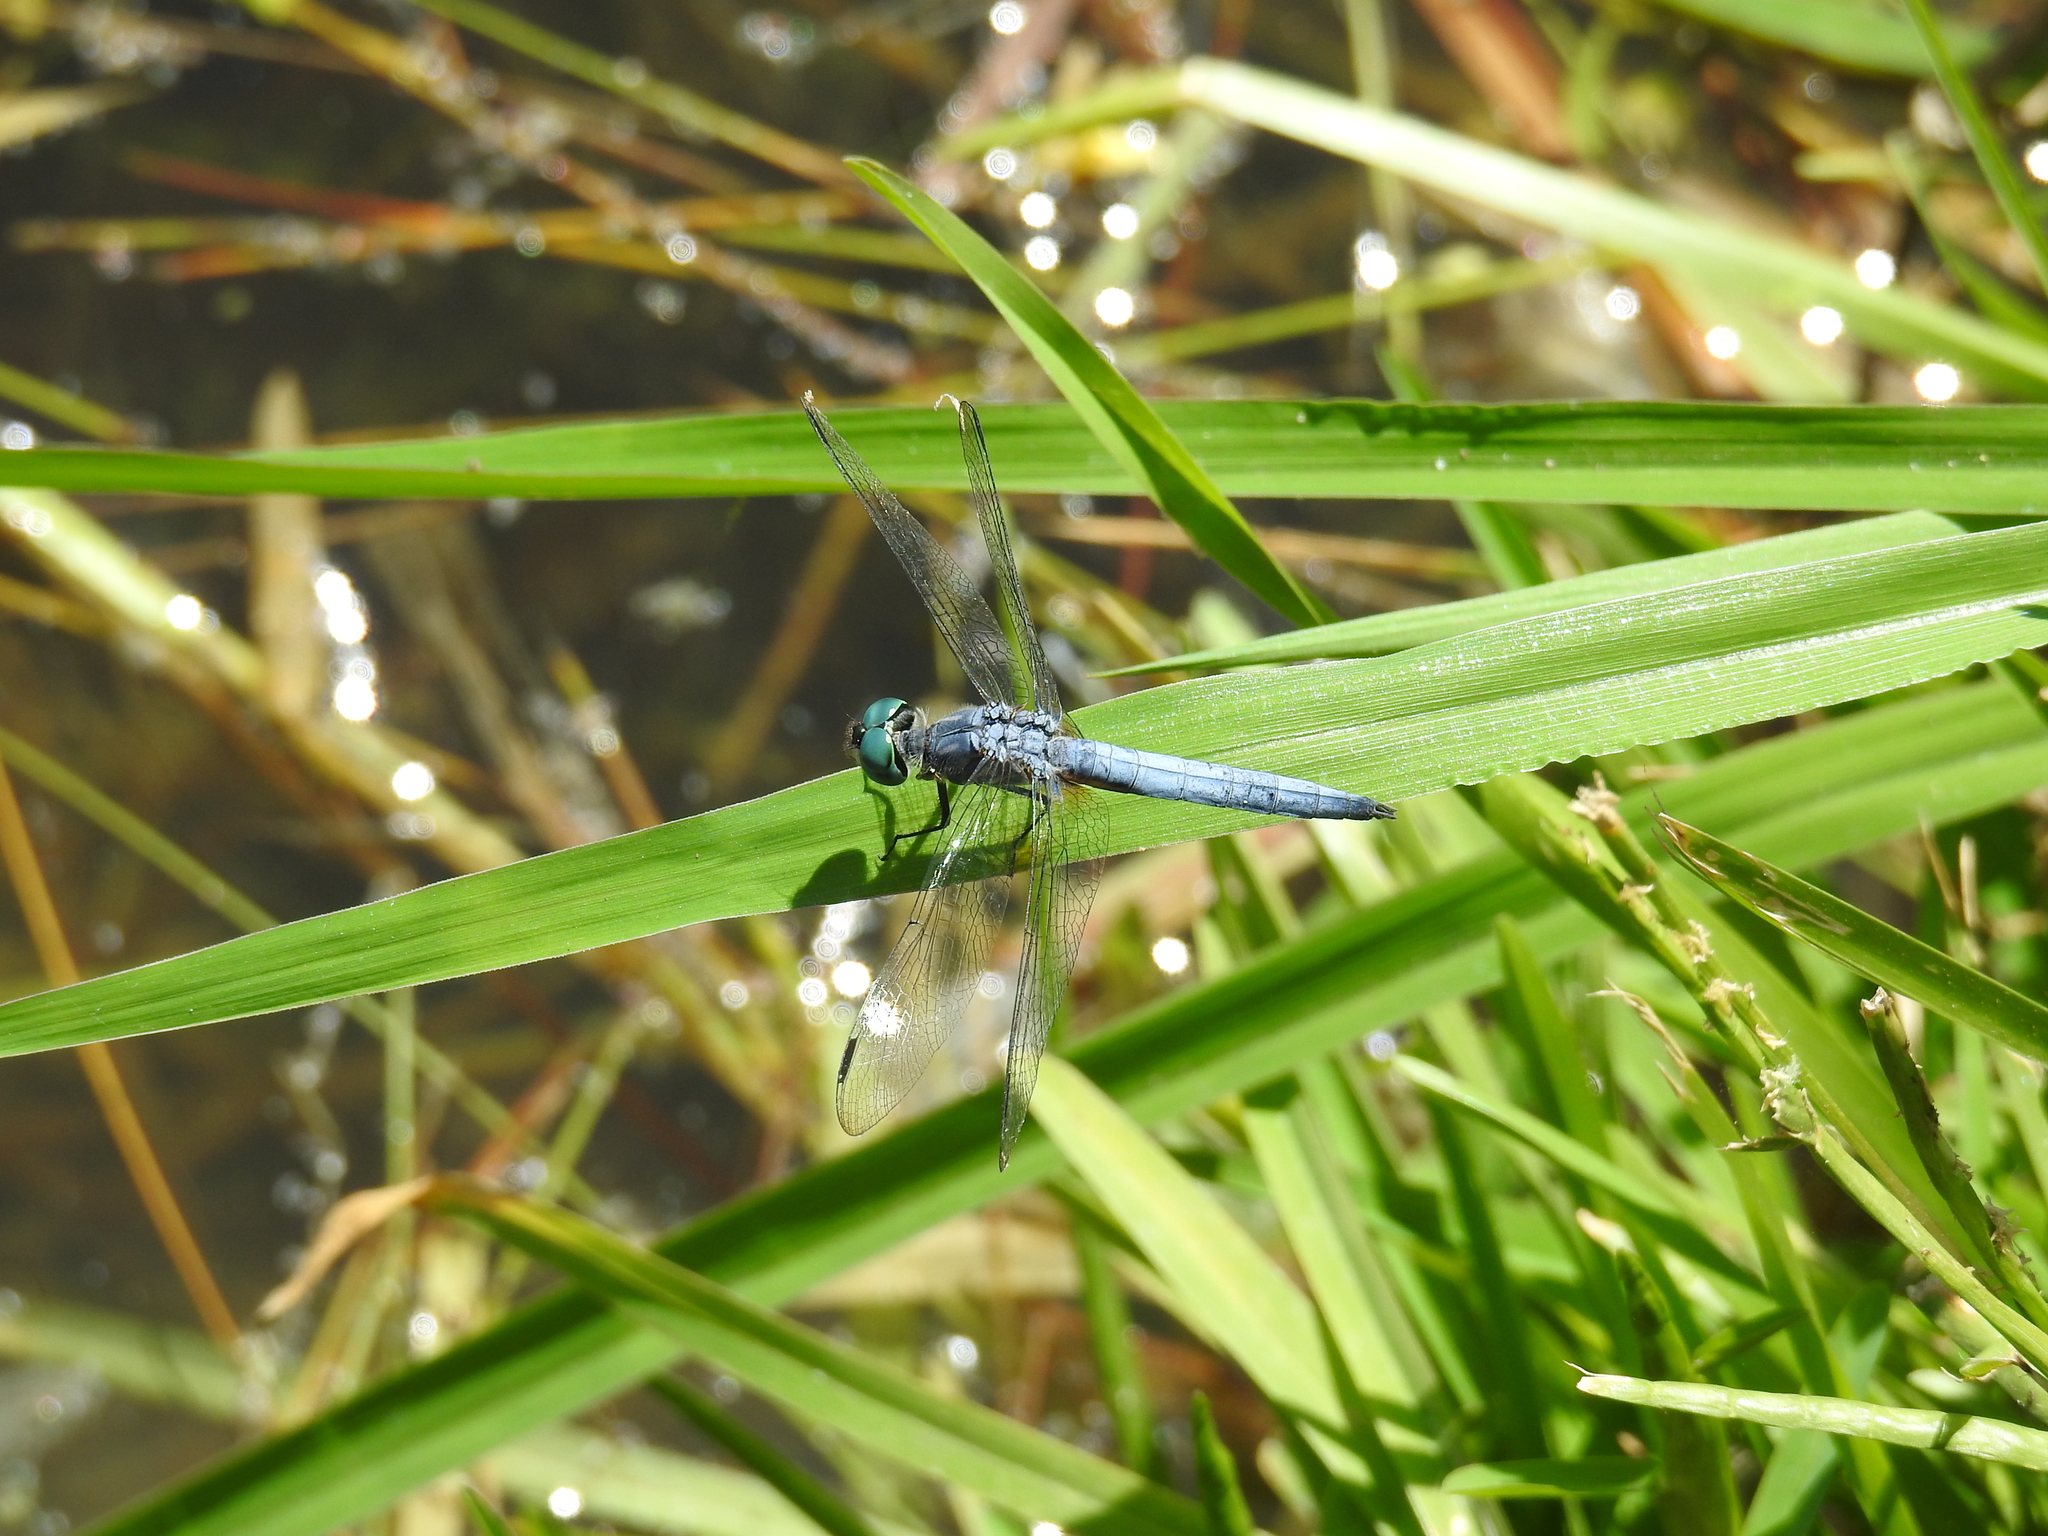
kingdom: Animalia
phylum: Arthropoda
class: Insecta
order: Odonata
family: Libellulidae
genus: Pachydiplax
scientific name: Pachydiplax longipennis
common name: Blue dasher
